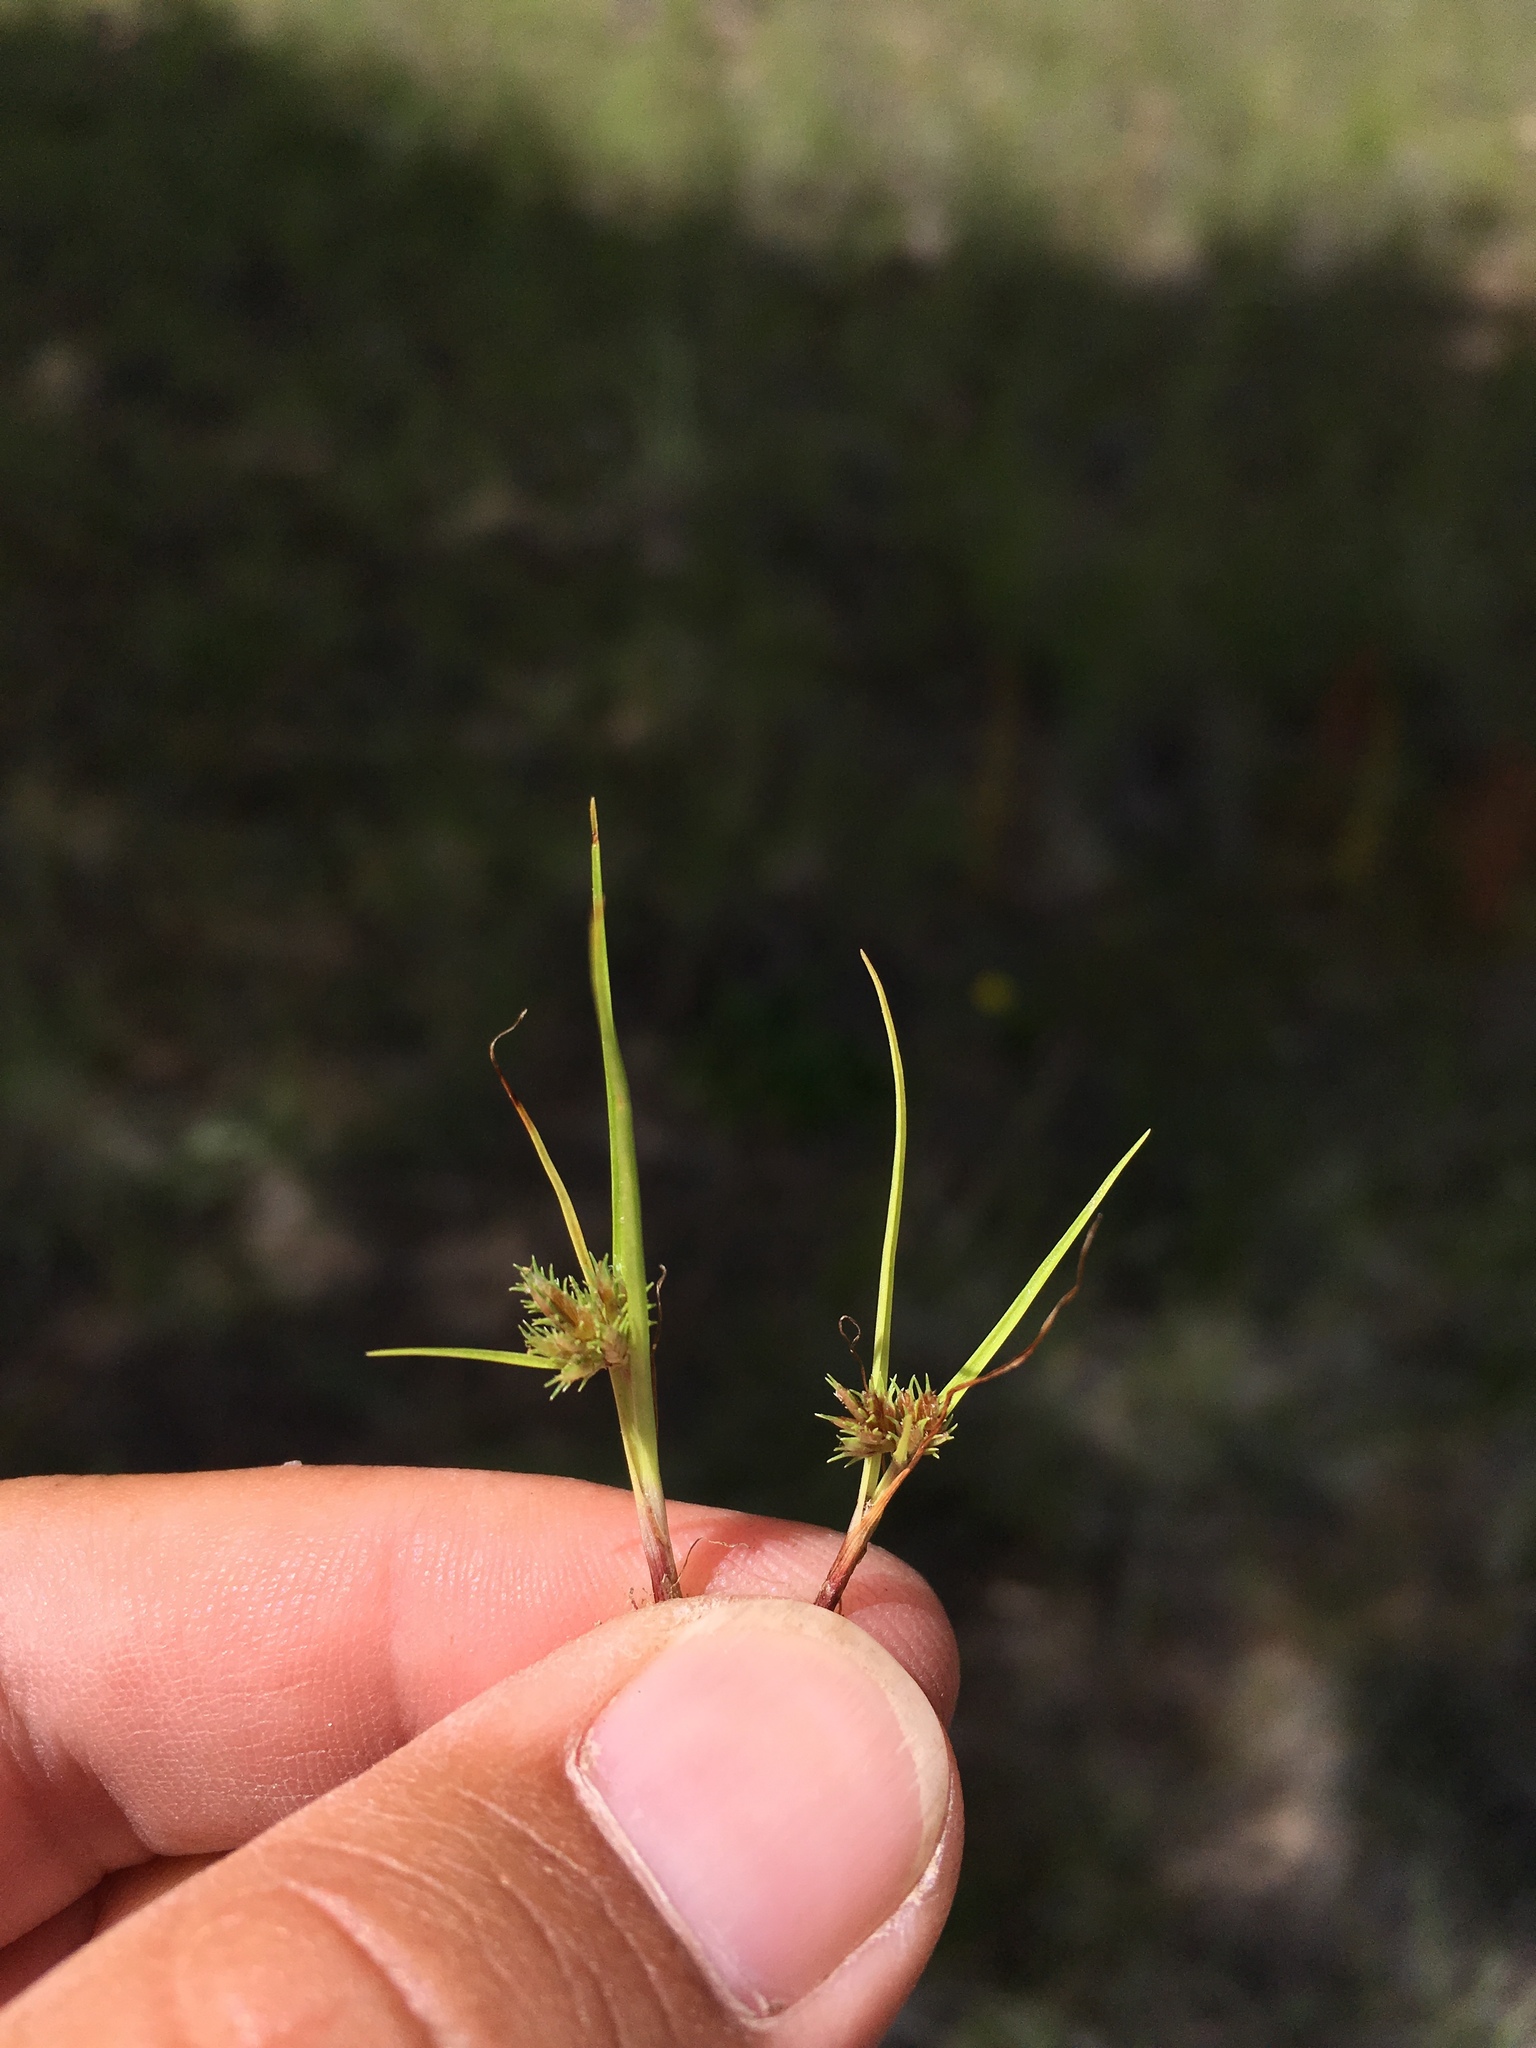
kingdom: Plantae
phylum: Tracheophyta
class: Liliopsida
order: Poales
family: Cyperaceae
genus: Cyperus
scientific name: Cyperus squarrosus
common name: Awned cyperus
